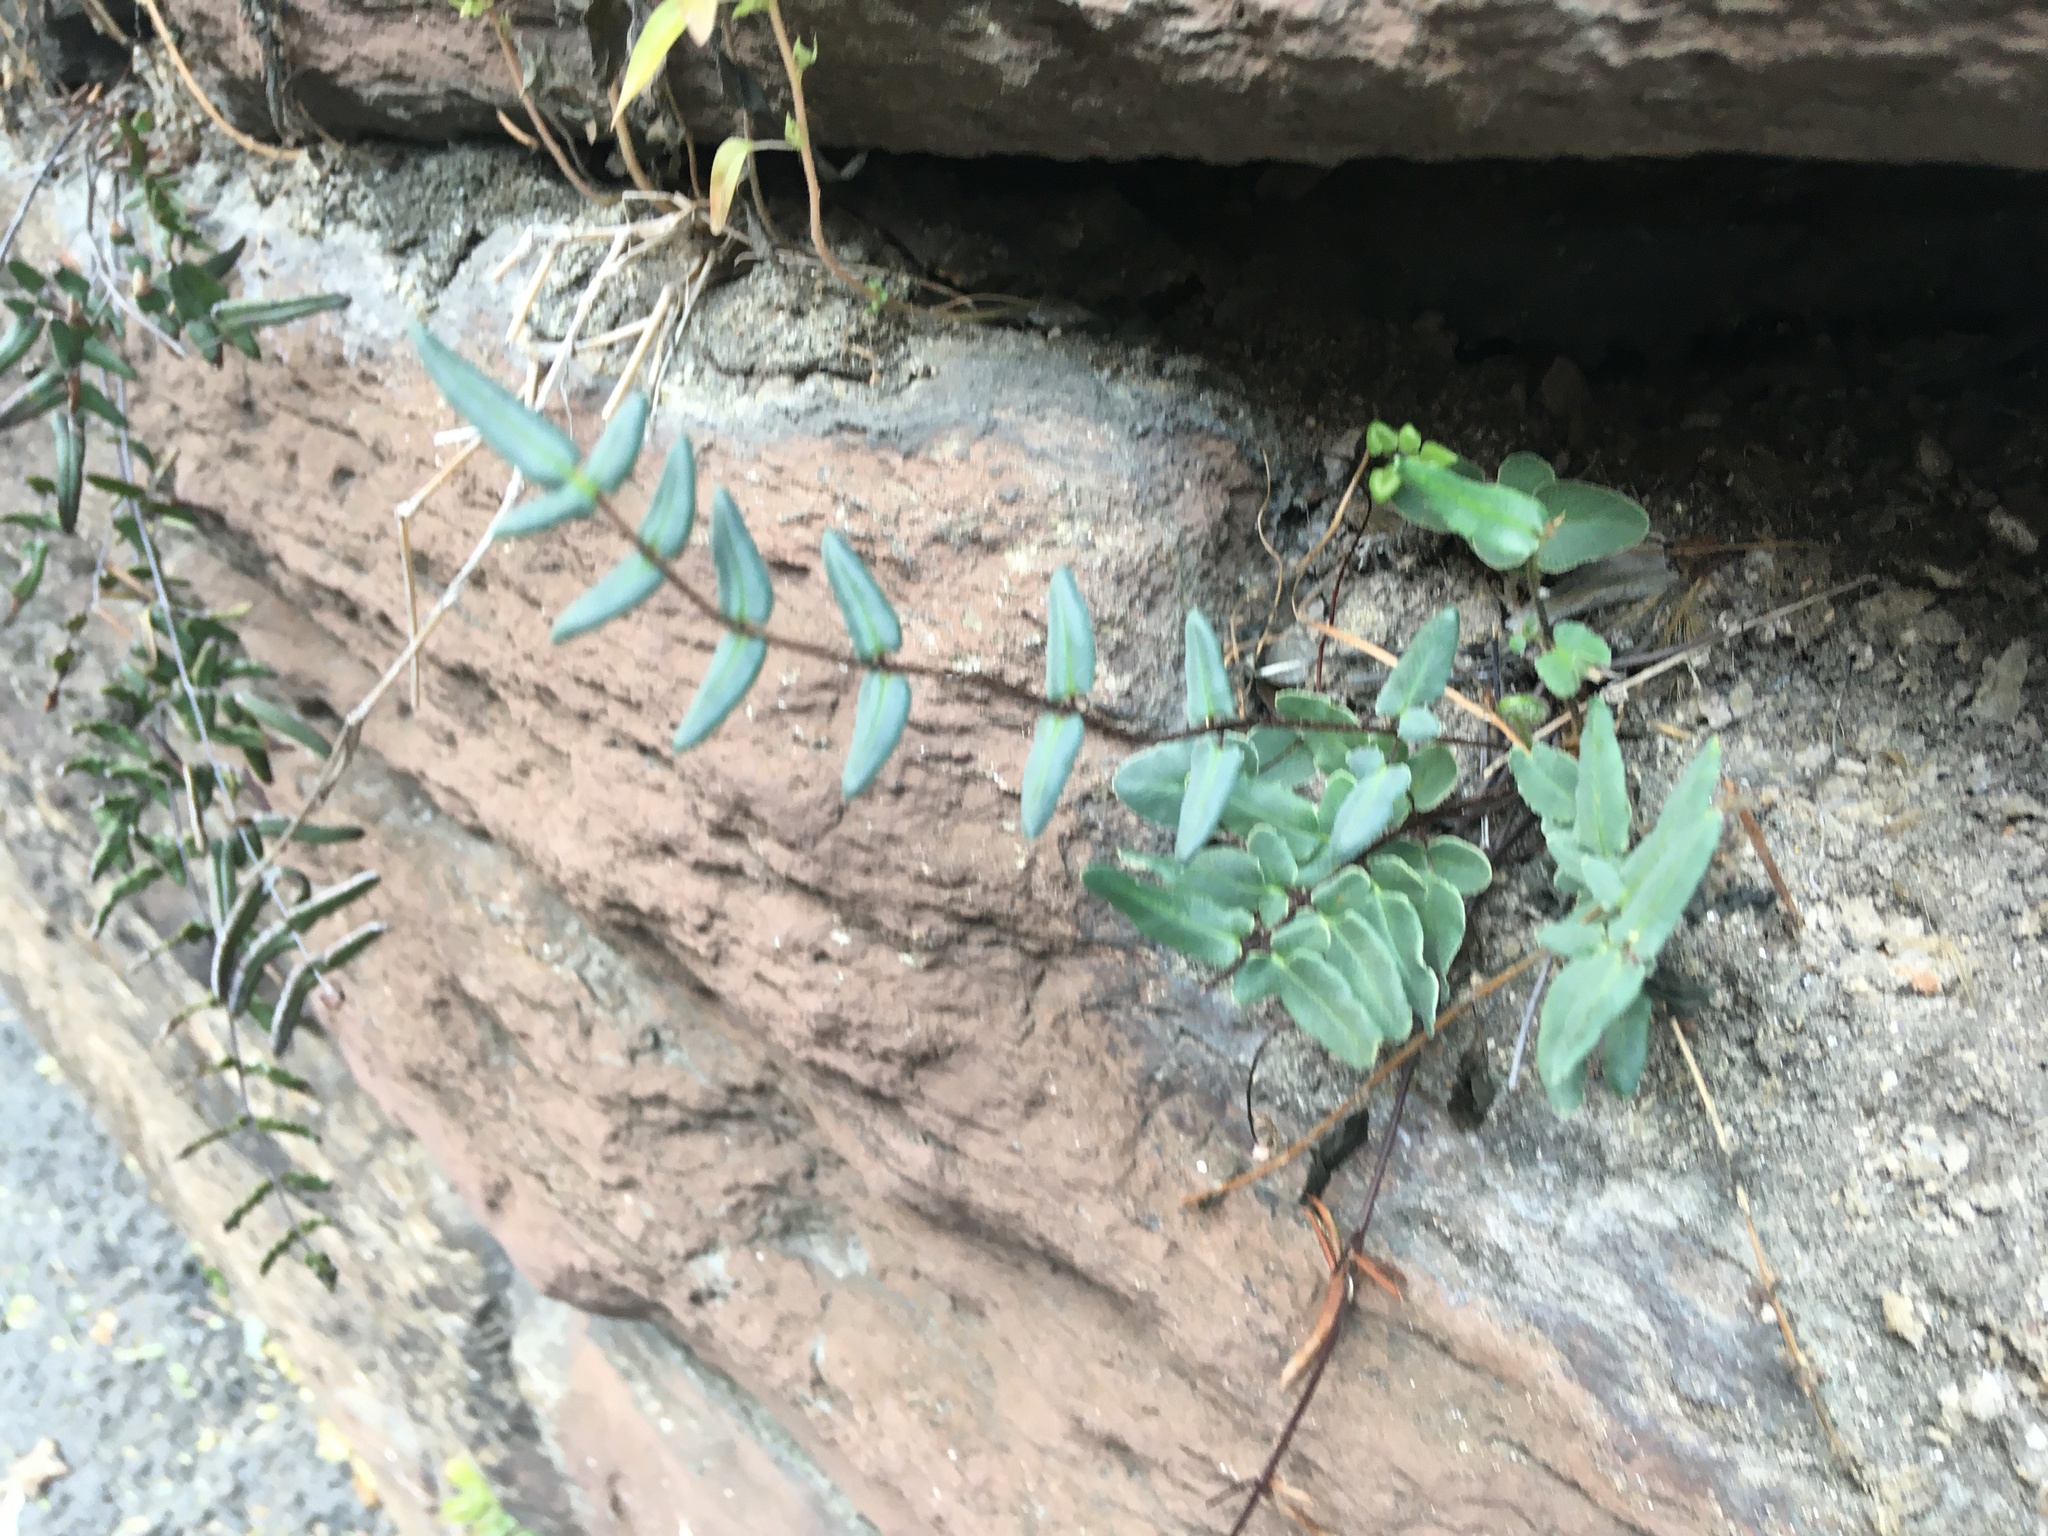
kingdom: Plantae
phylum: Tracheophyta
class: Polypodiopsida
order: Polypodiales
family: Pteridaceae
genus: Pellaea
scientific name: Pellaea atropurpurea
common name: Hairy cliffbrake
